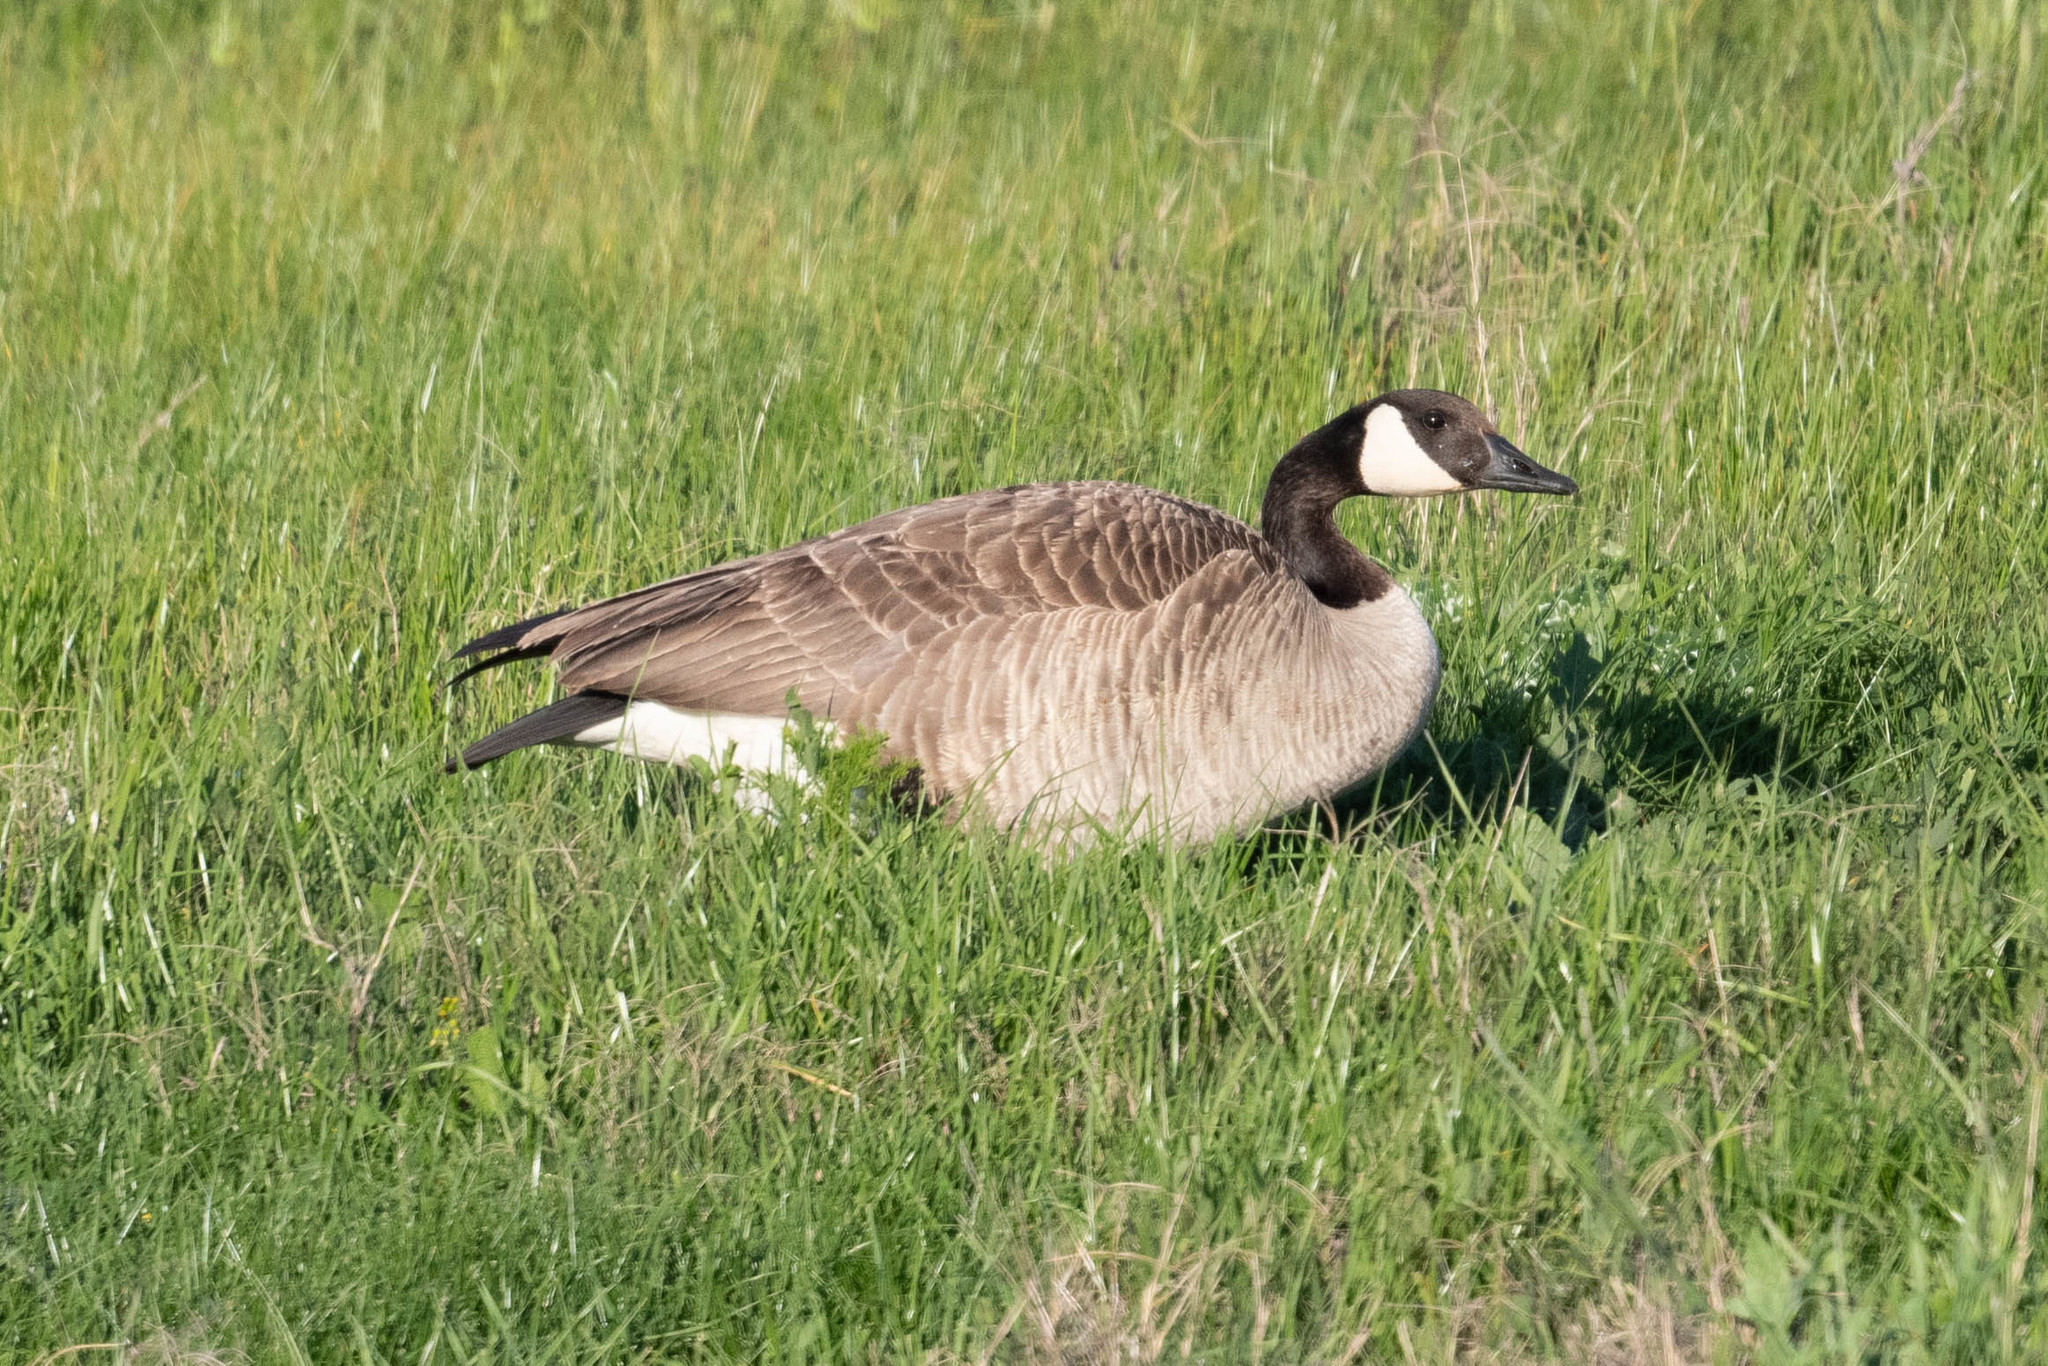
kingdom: Animalia
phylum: Chordata
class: Aves
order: Anseriformes
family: Anatidae
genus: Branta
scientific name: Branta canadensis
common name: Canada goose
